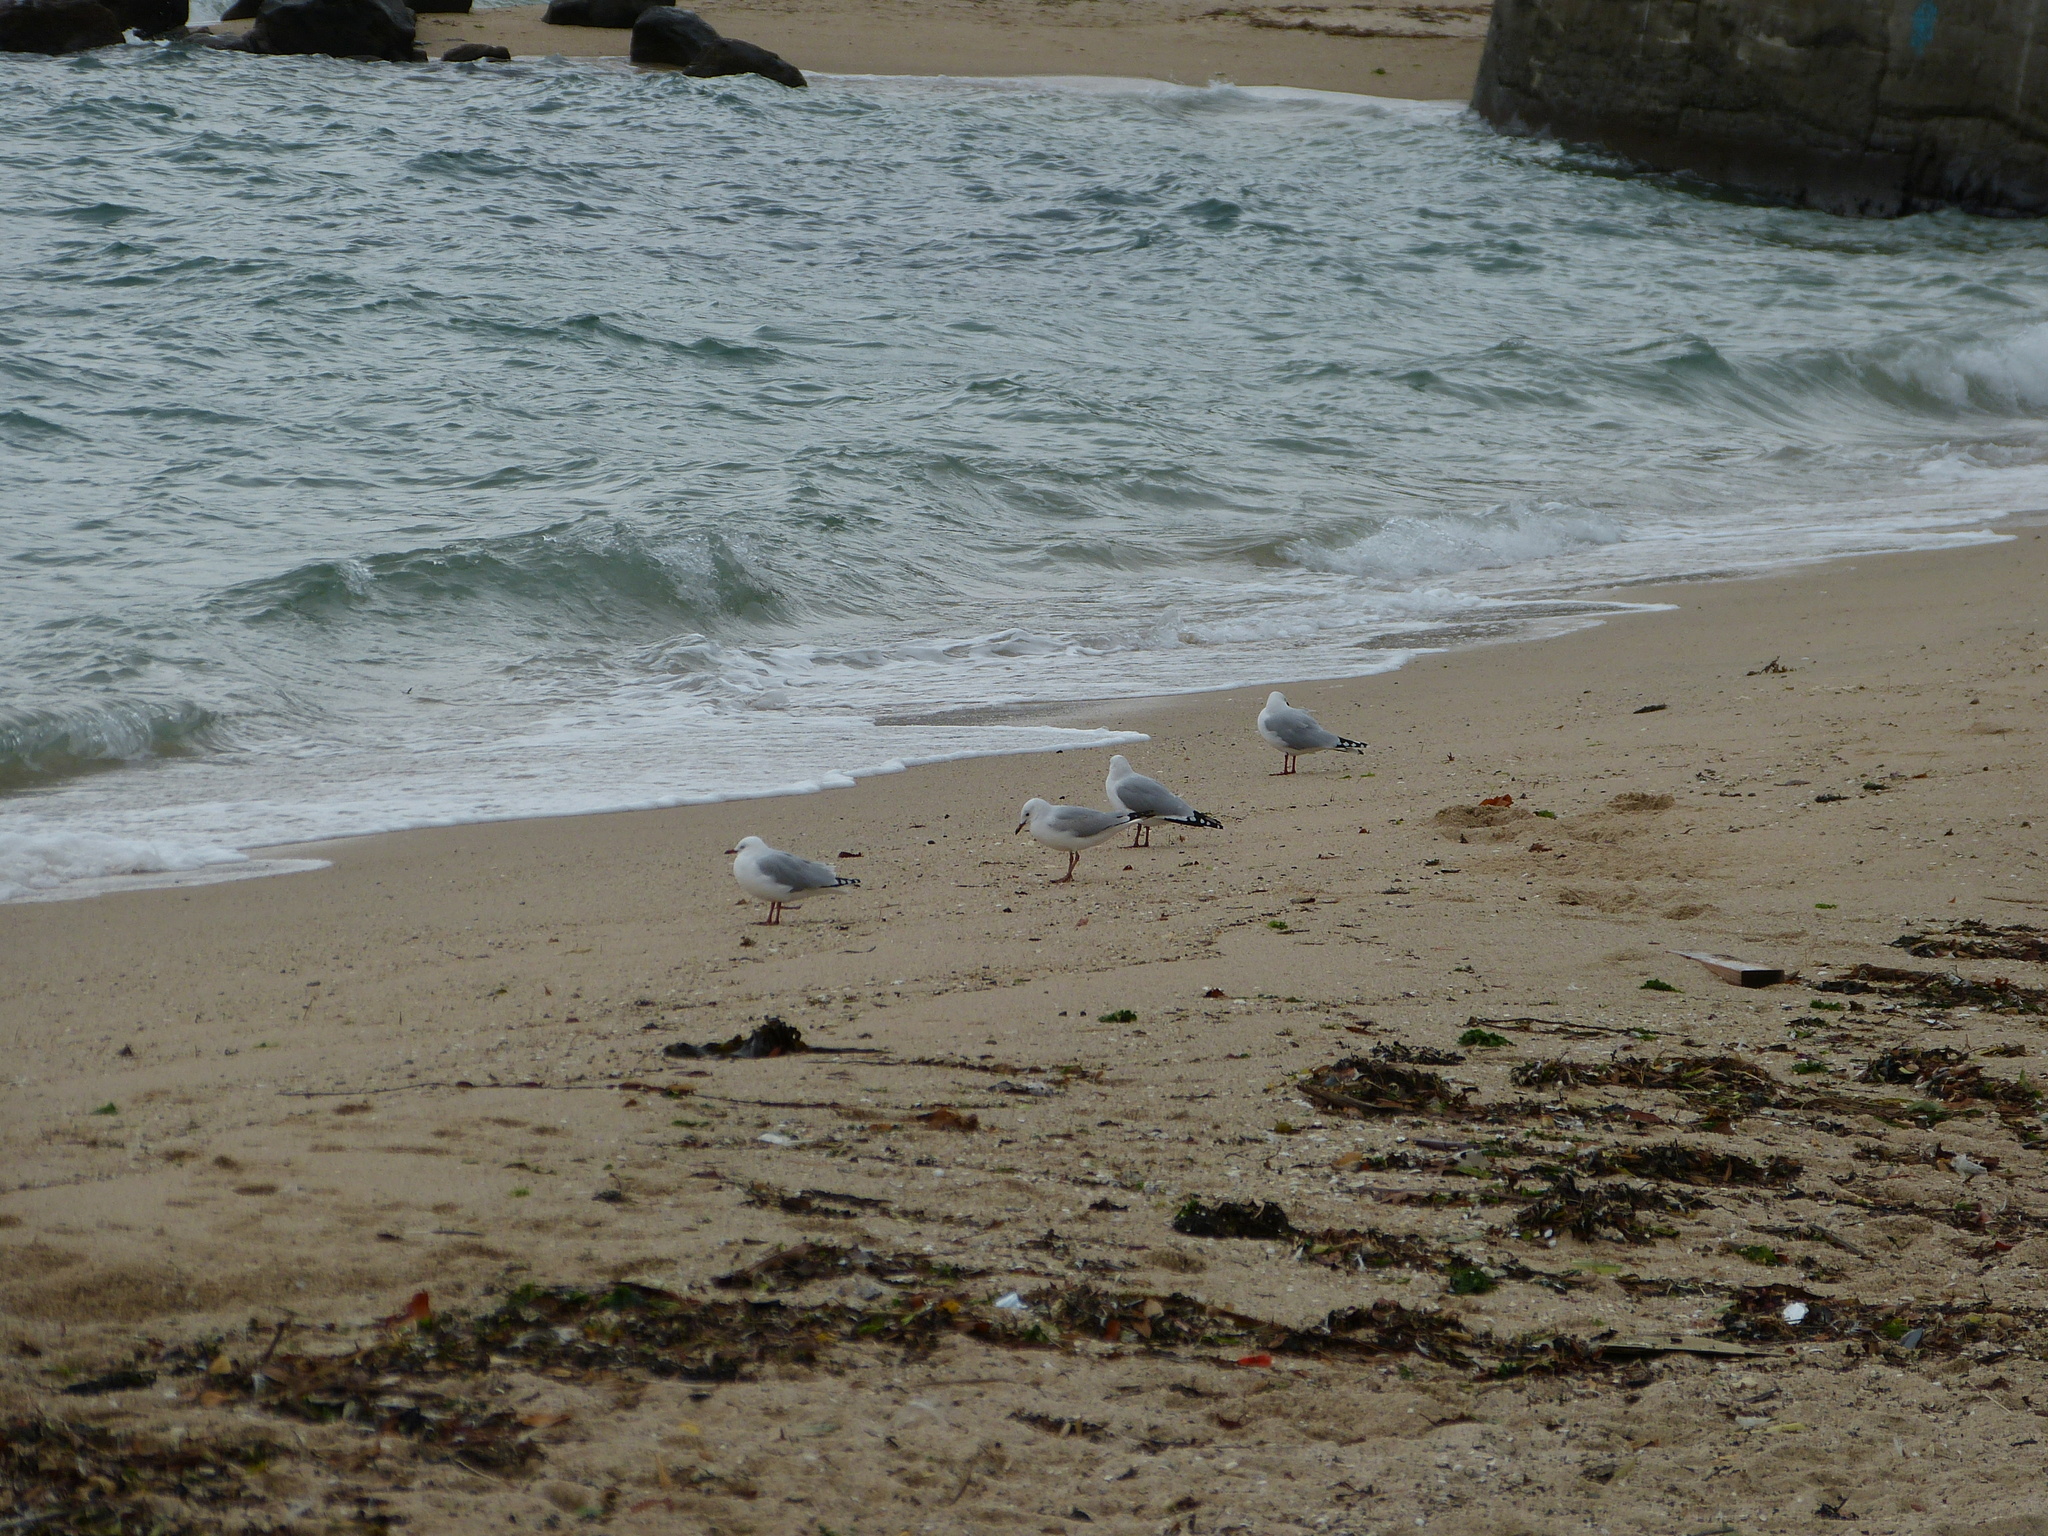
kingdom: Animalia
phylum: Chordata
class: Aves
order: Charadriiformes
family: Laridae
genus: Chroicocephalus
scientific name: Chroicocephalus novaehollandiae
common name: Silver gull
